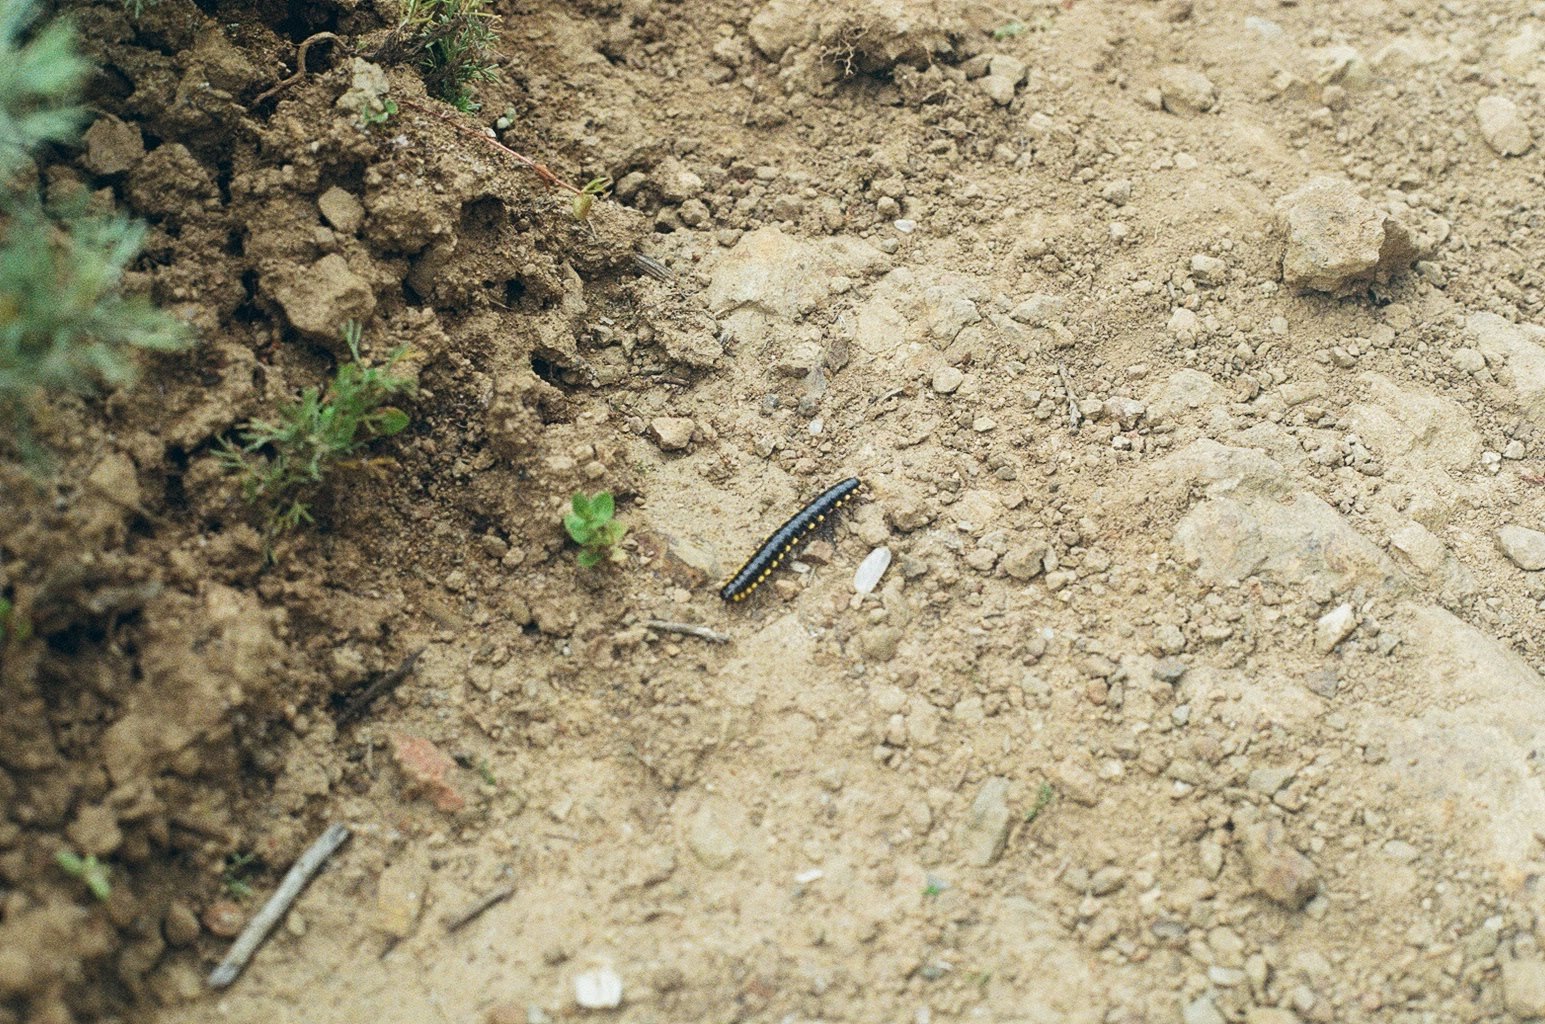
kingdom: Animalia
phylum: Arthropoda
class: Diplopoda
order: Polydesmida
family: Xystodesmidae
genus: Harpaphe
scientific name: Harpaphe haydeniana
